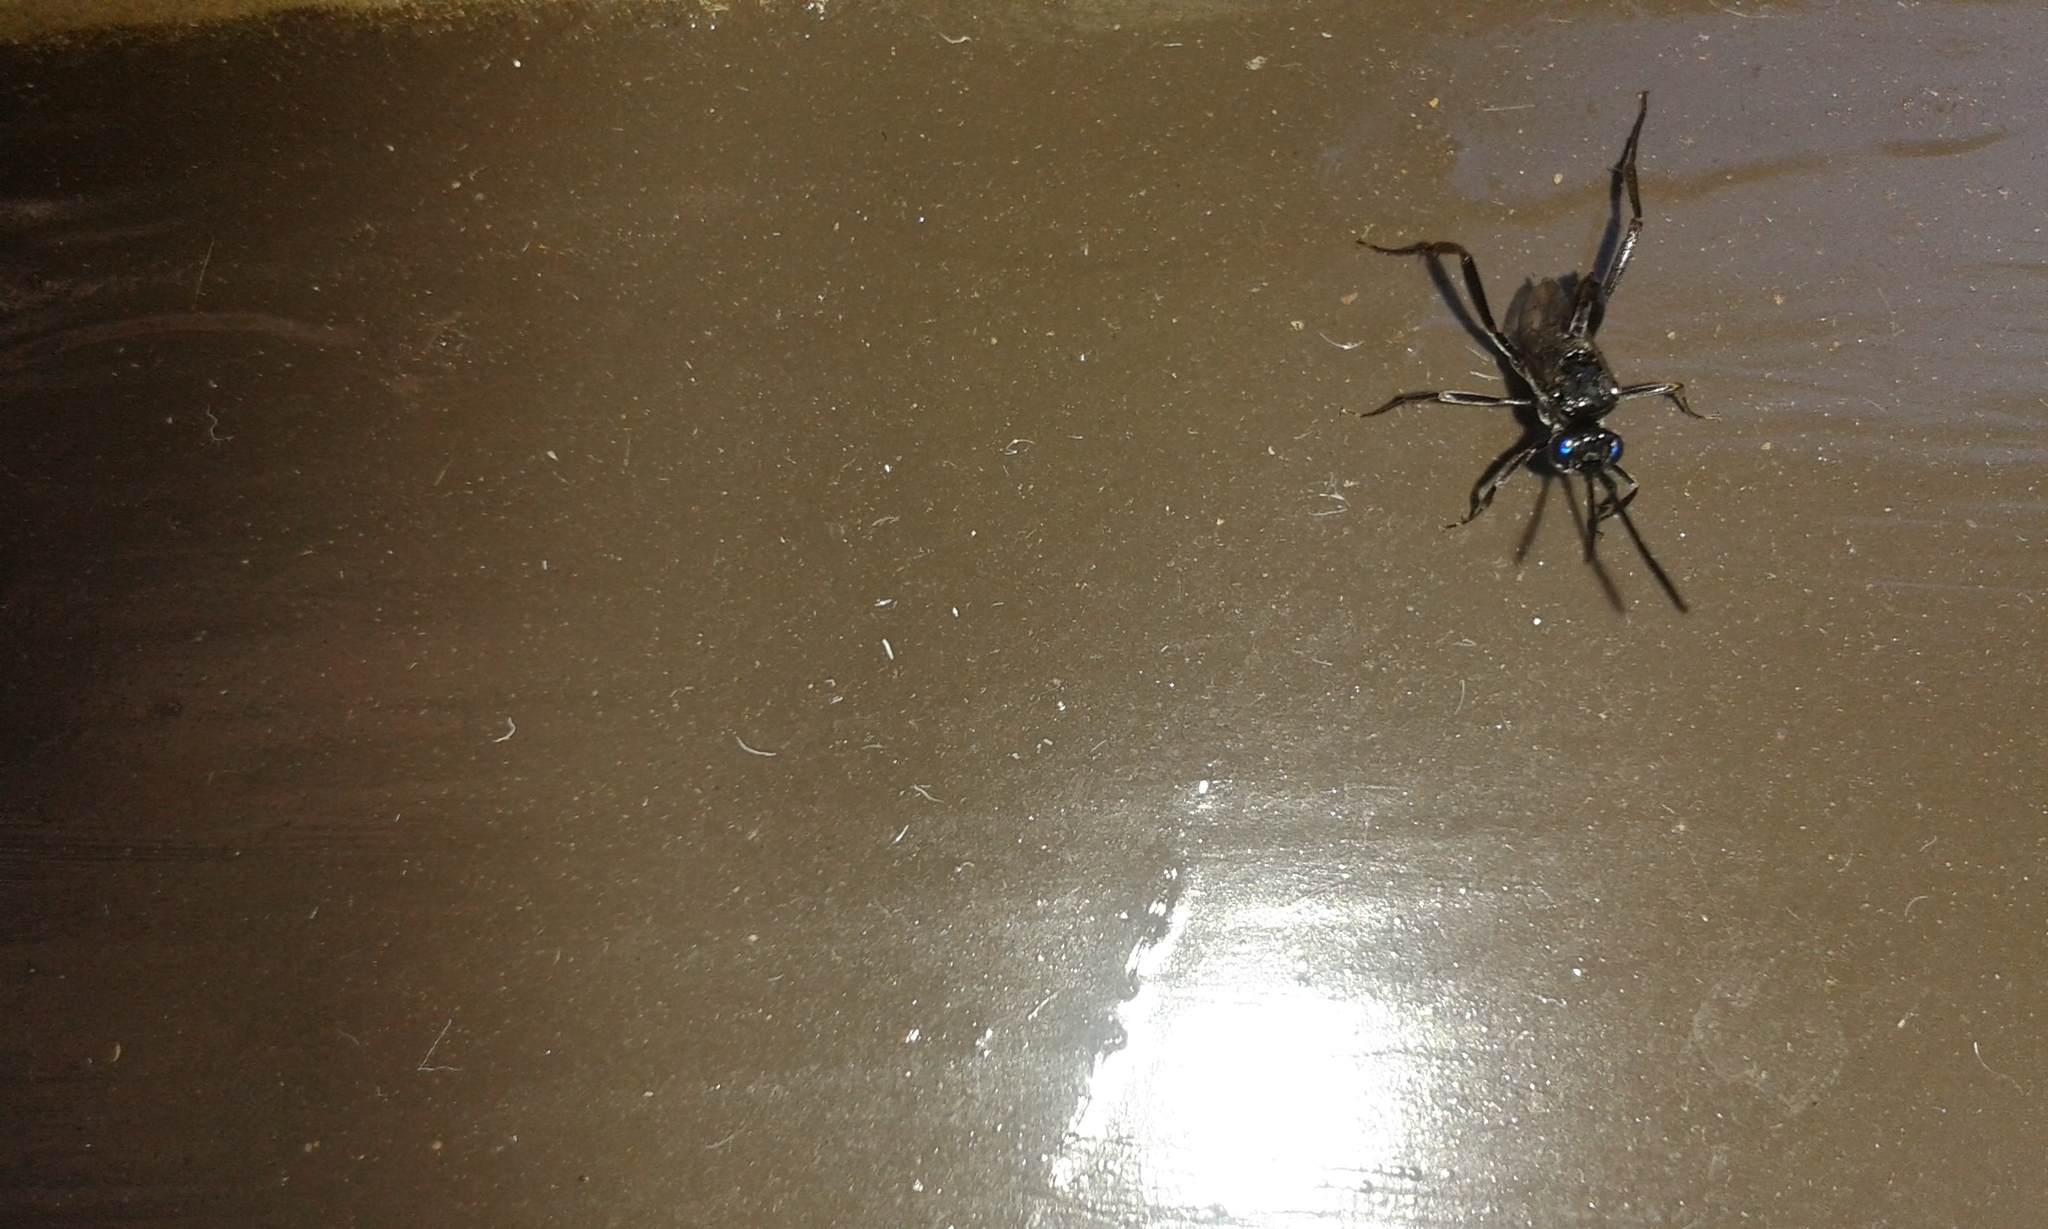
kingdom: Animalia
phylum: Arthropoda
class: Insecta
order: Hymenoptera
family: Evaniidae
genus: Evania
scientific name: Evania appendigaster
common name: Ensign wasp
